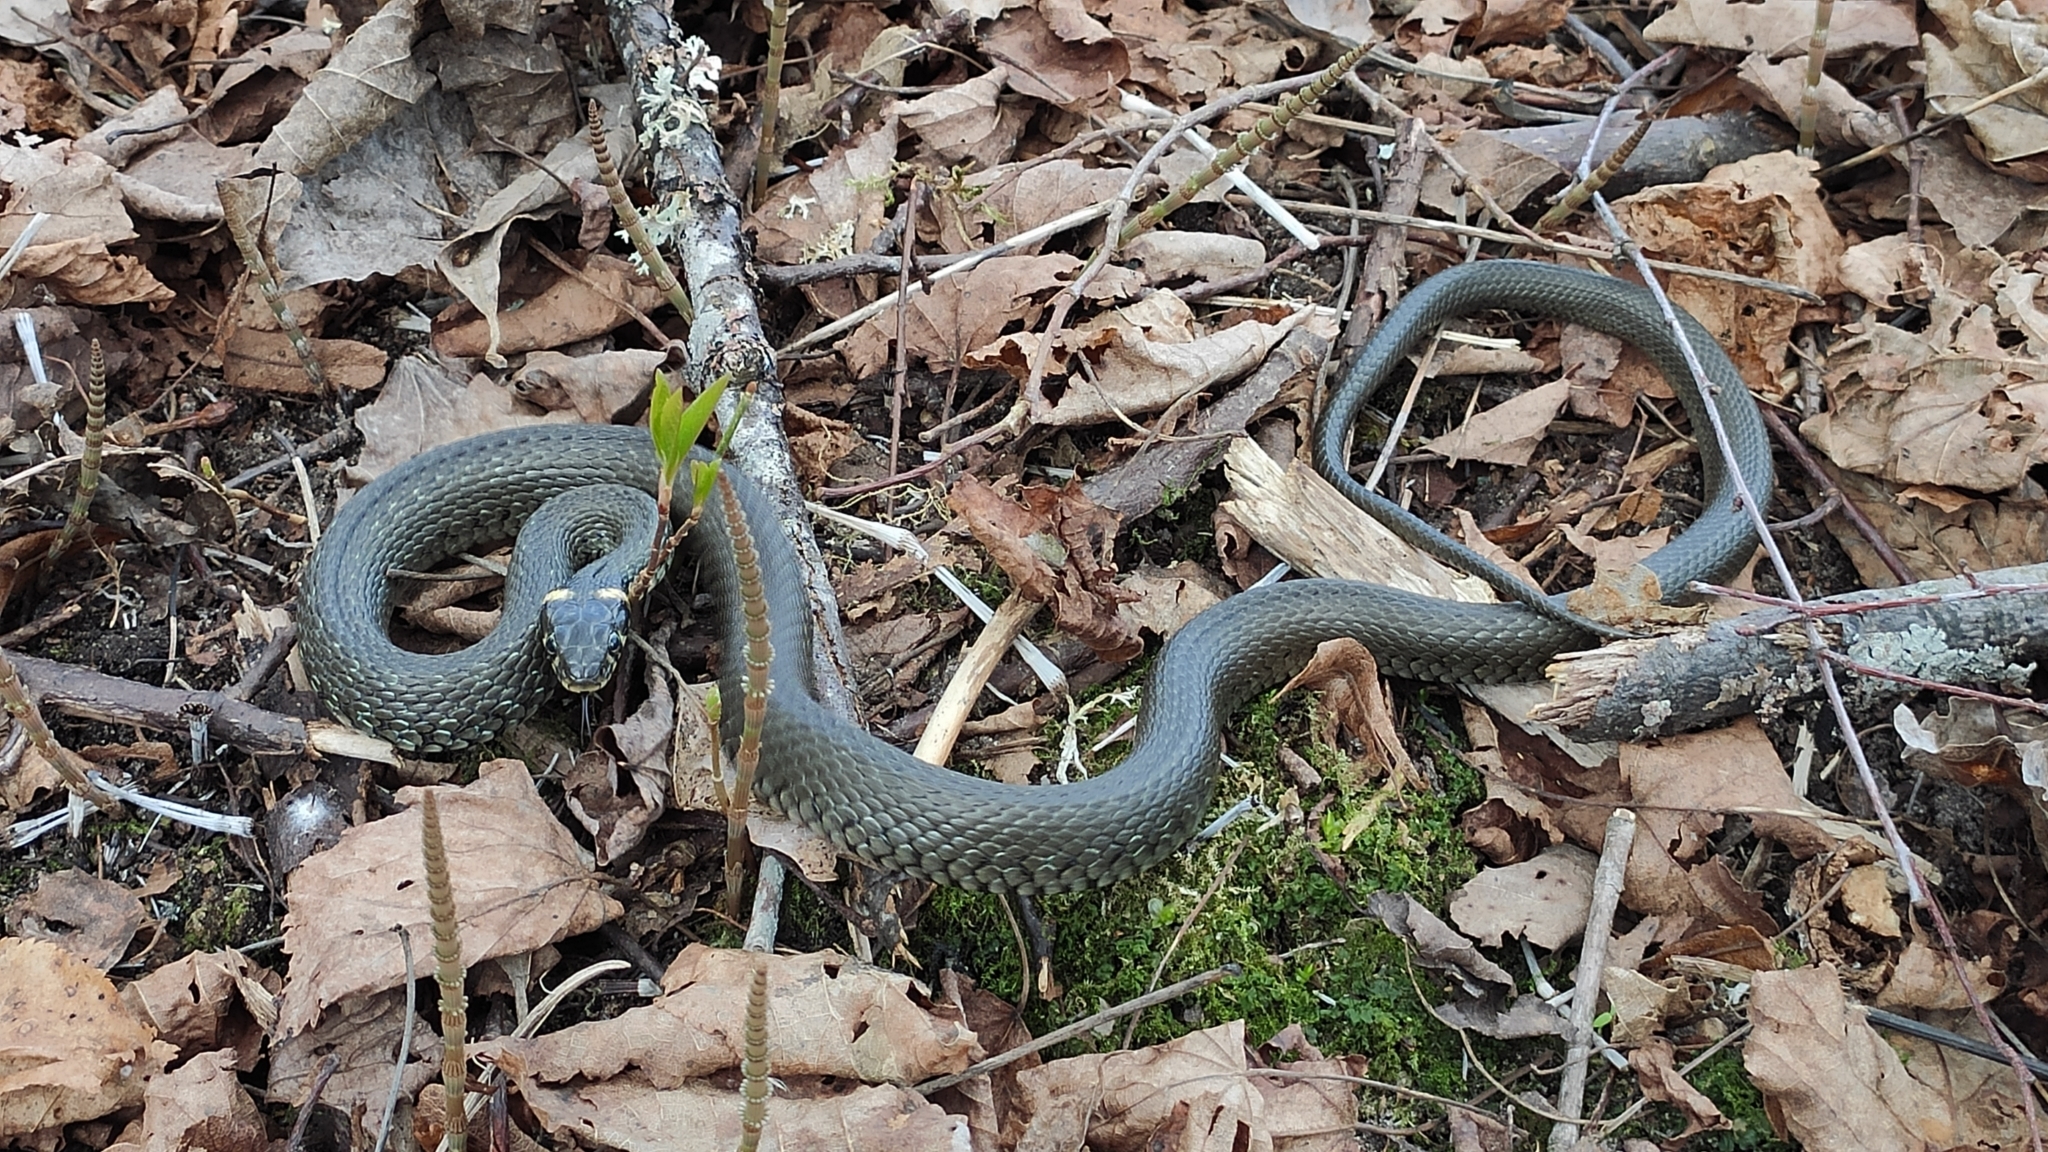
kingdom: Animalia
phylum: Chordata
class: Squamata
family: Colubridae
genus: Natrix
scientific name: Natrix natrix
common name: Grass snake
